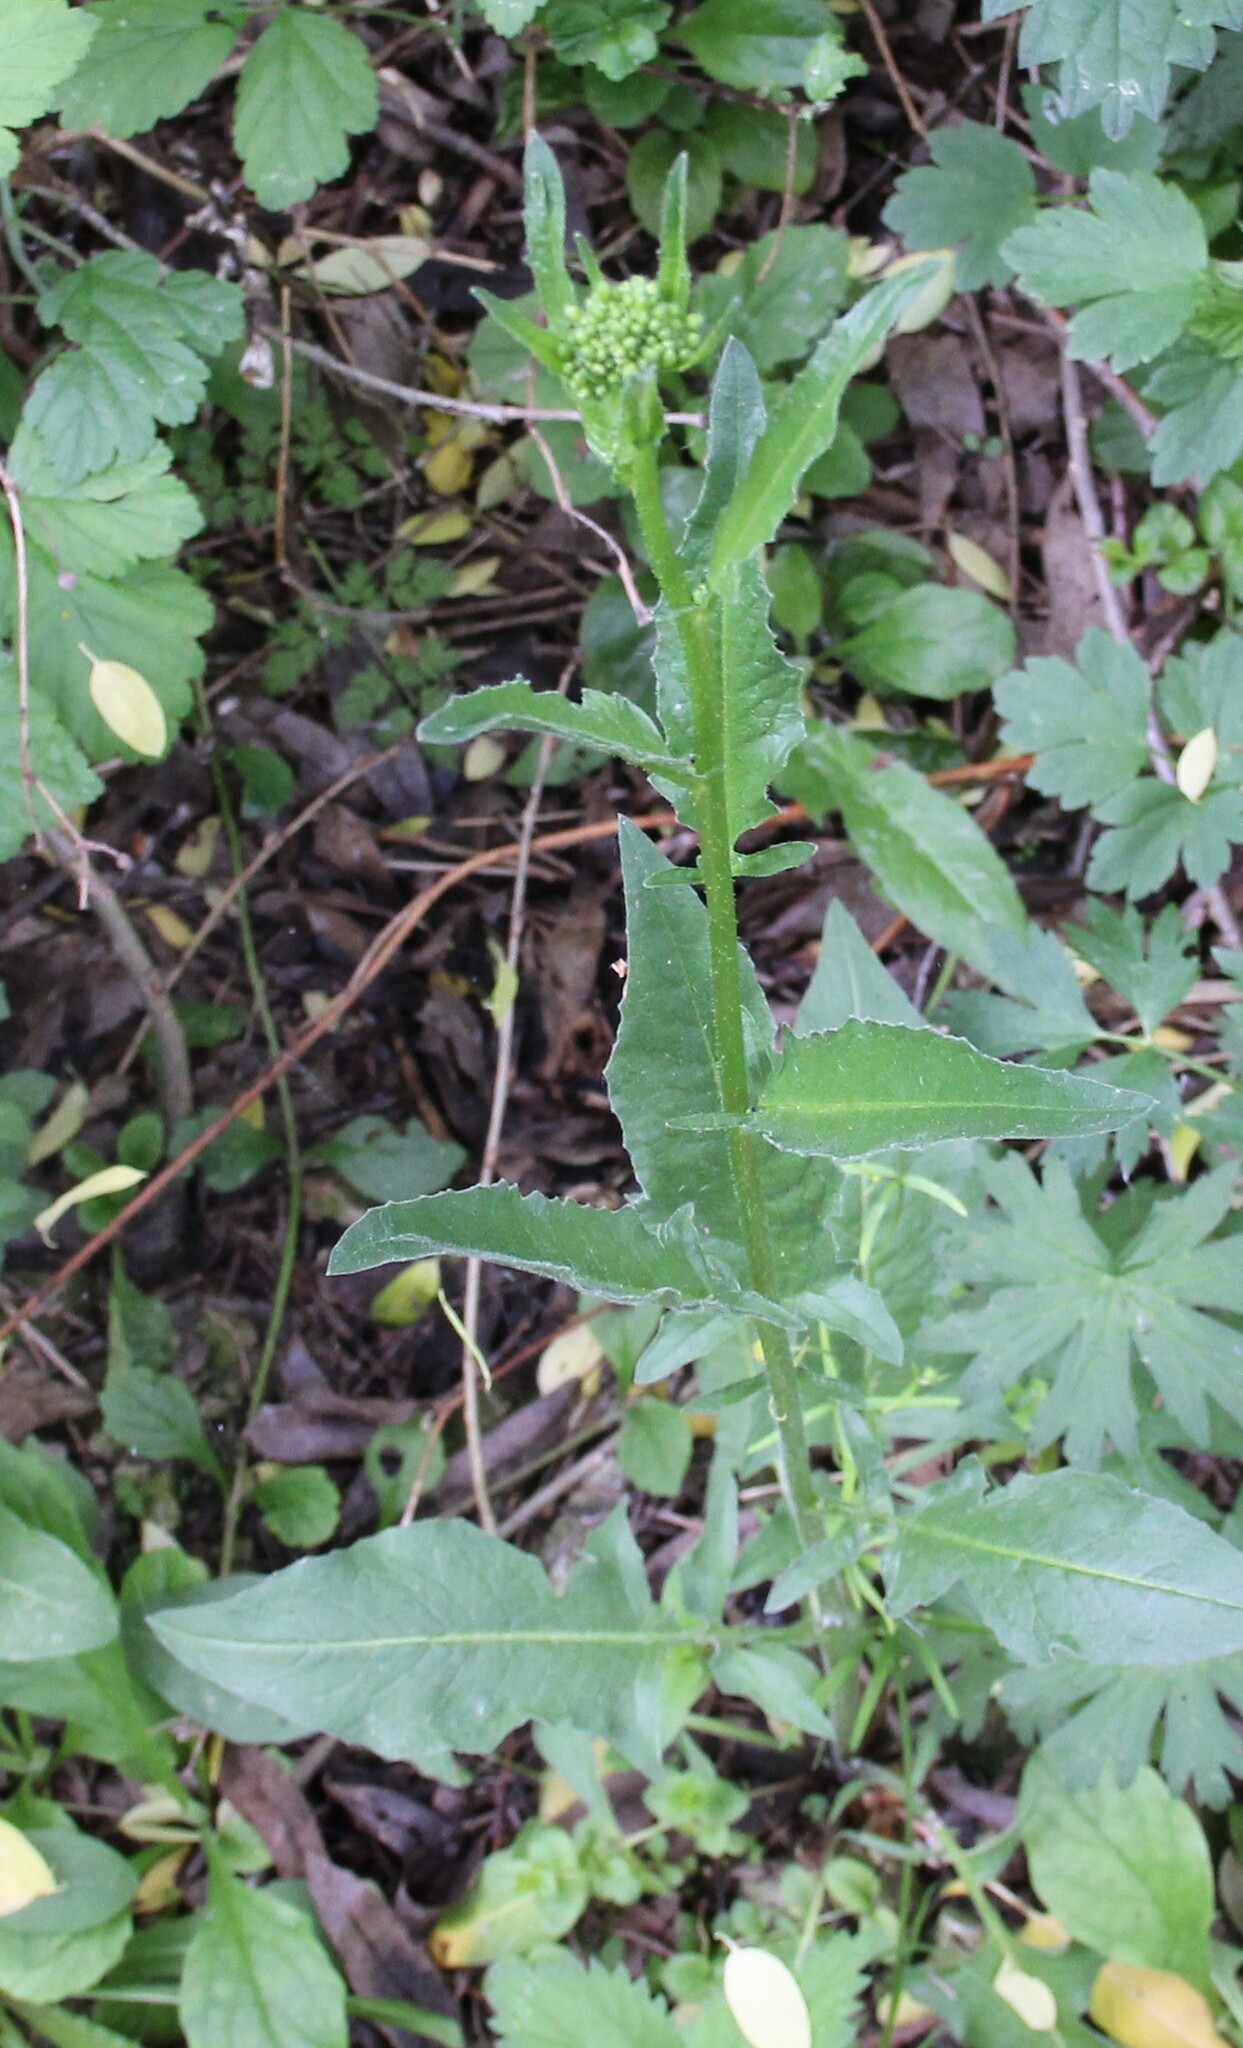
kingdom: Plantae
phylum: Tracheophyta
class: Magnoliopsida
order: Brassicales
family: Brassicaceae
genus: Bunias
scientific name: Bunias orientalis
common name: Warty-cabbage
